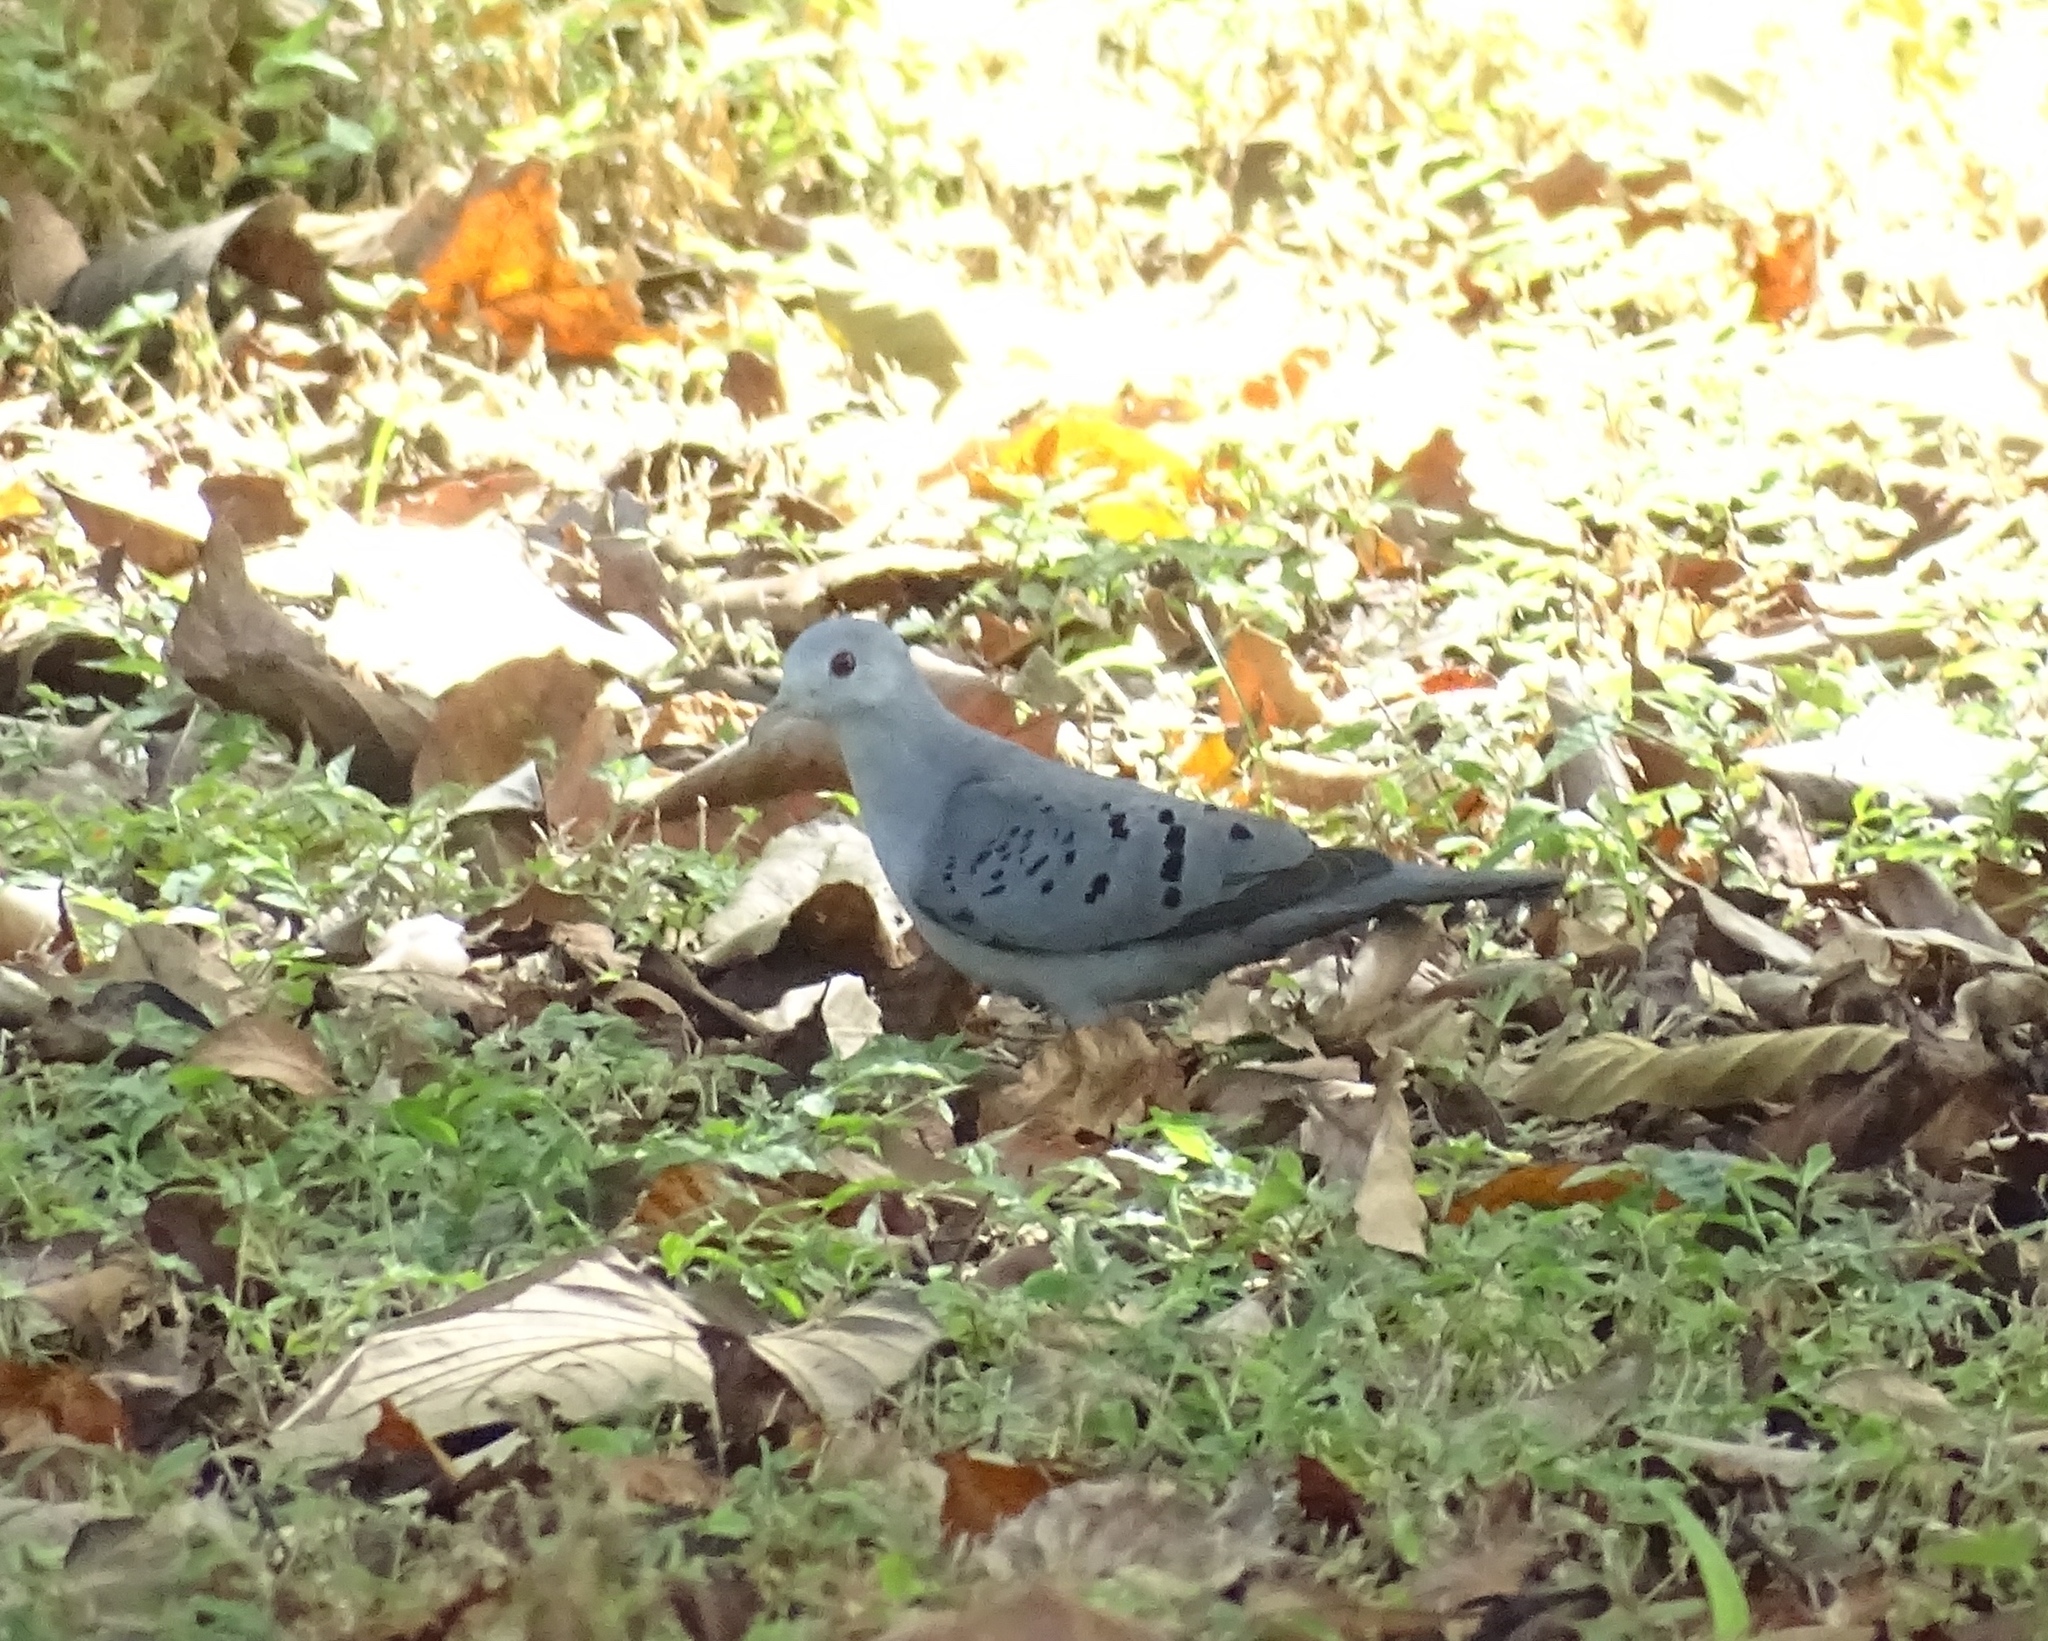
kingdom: Animalia
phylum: Chordata
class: Aves
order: Columbiformes
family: Columbidae
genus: Claravis
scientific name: Claravis pretiosa
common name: Blue ground-dove
